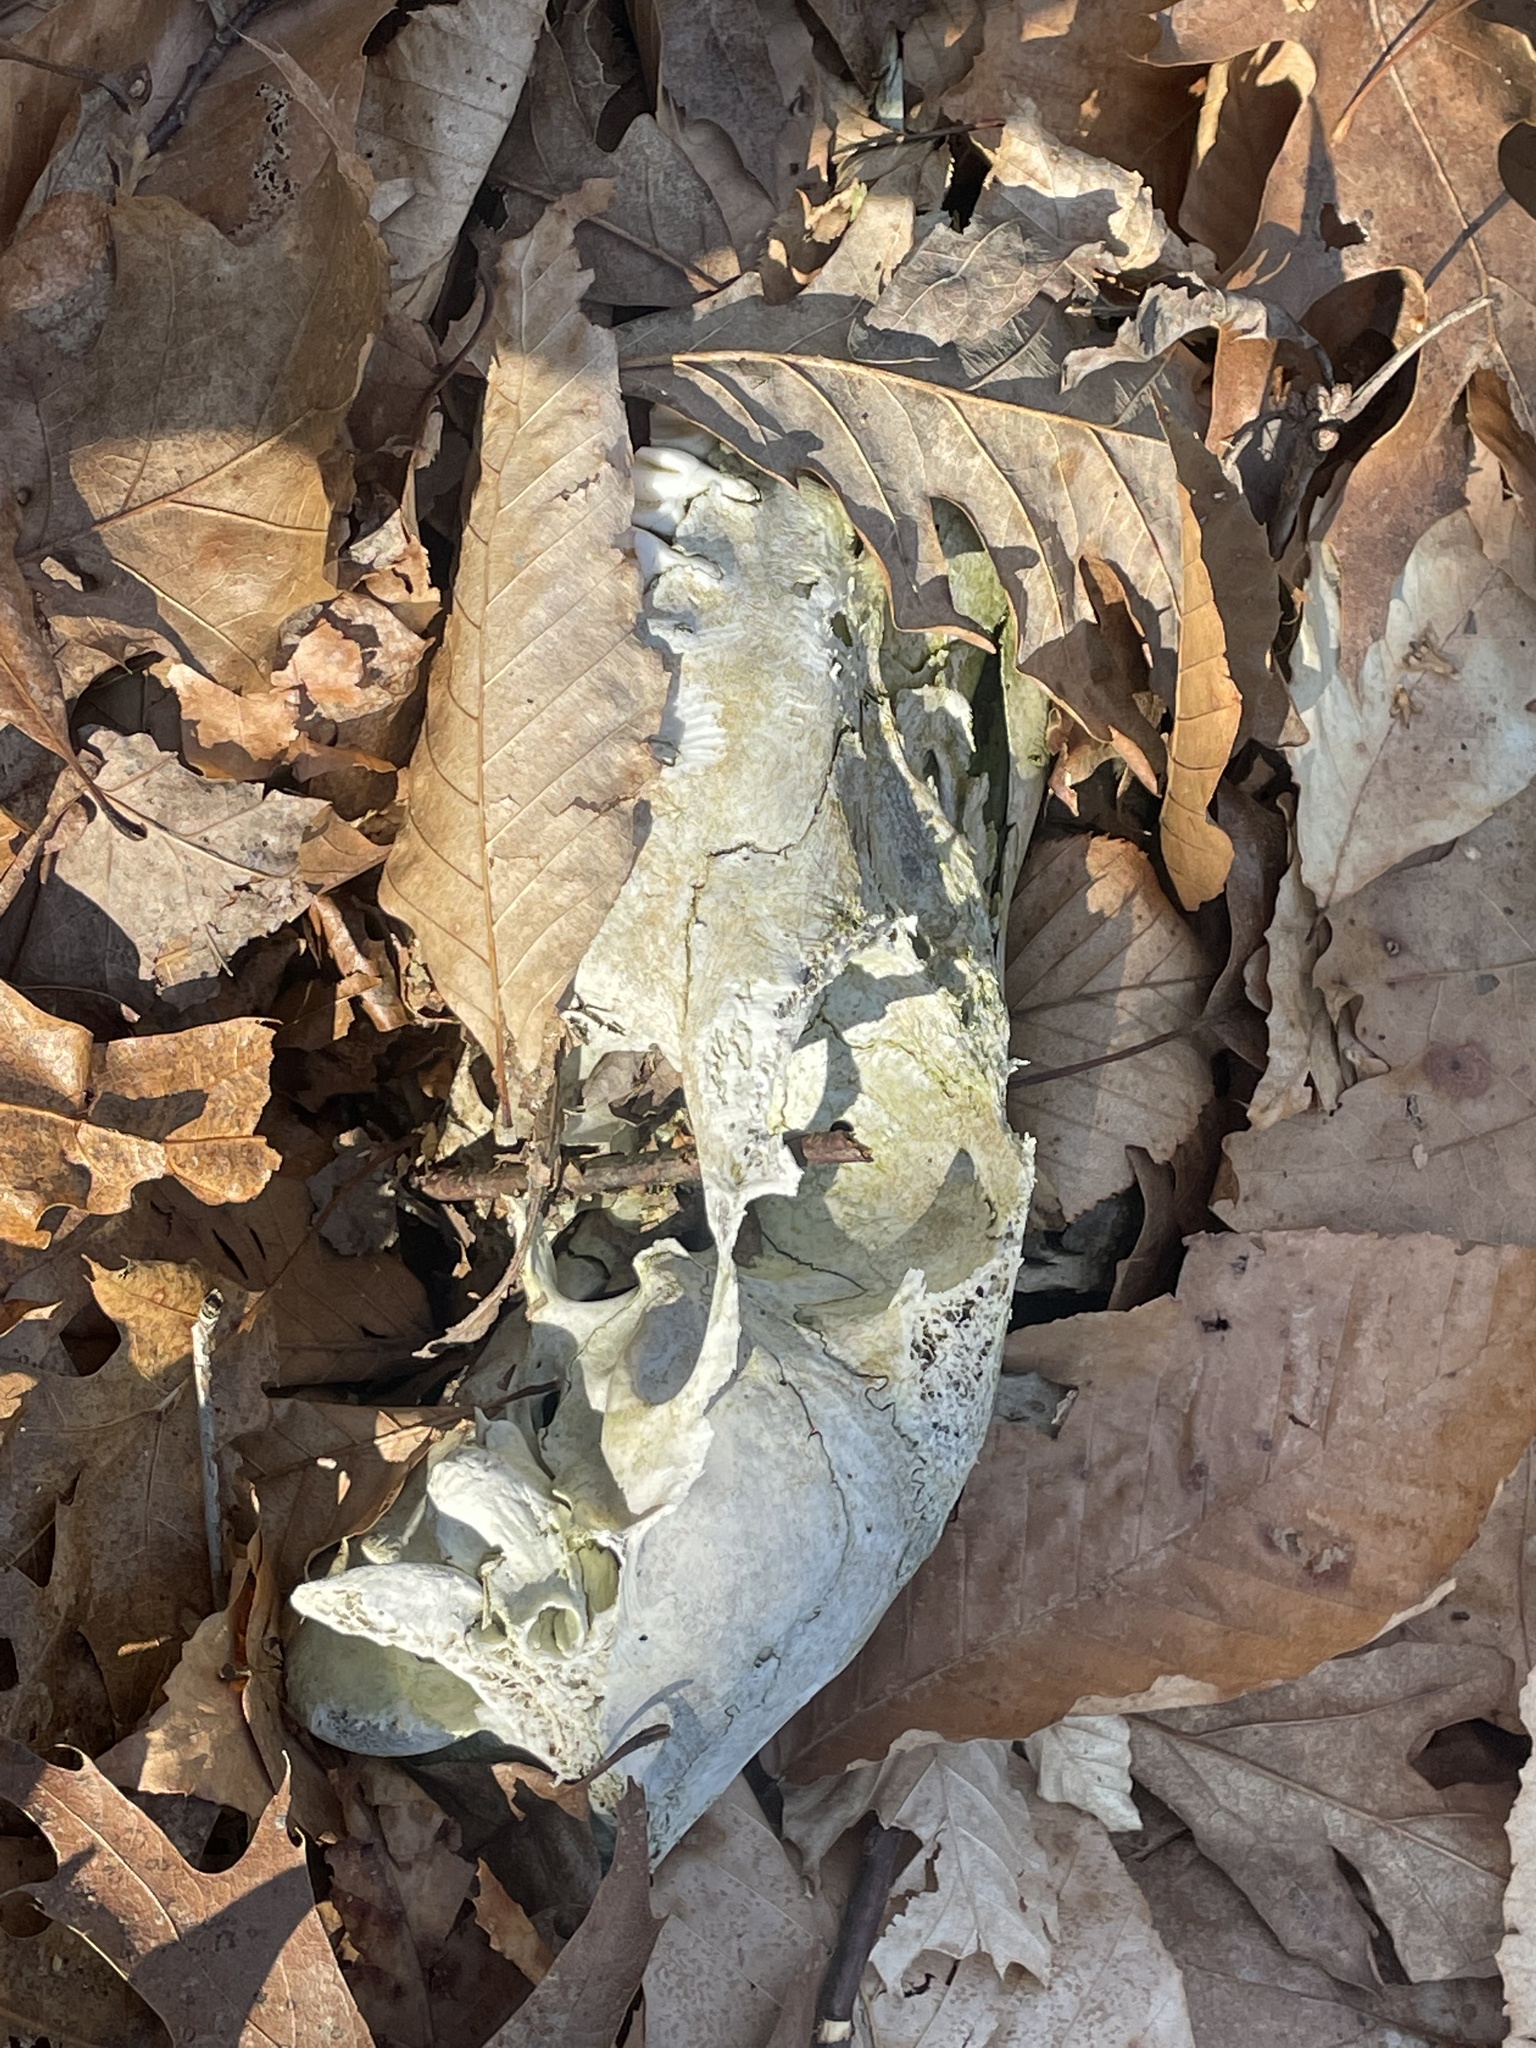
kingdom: Animalia
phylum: Chordata
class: Mammalia
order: Artiodactyla
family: Cervidae
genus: Odocoileus
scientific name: Odocoileus virginianus
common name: White-tailed deer
